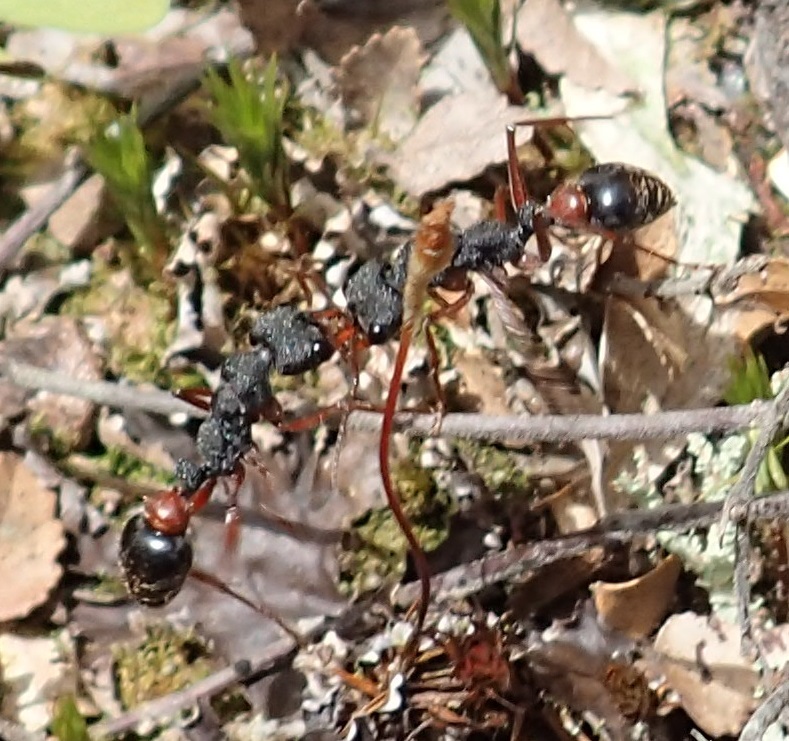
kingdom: Animalia
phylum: Arthropoda
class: Insecta
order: Hymenoptera
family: Formicidae
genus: Myrmecia
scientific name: Myrmecia esuriens
